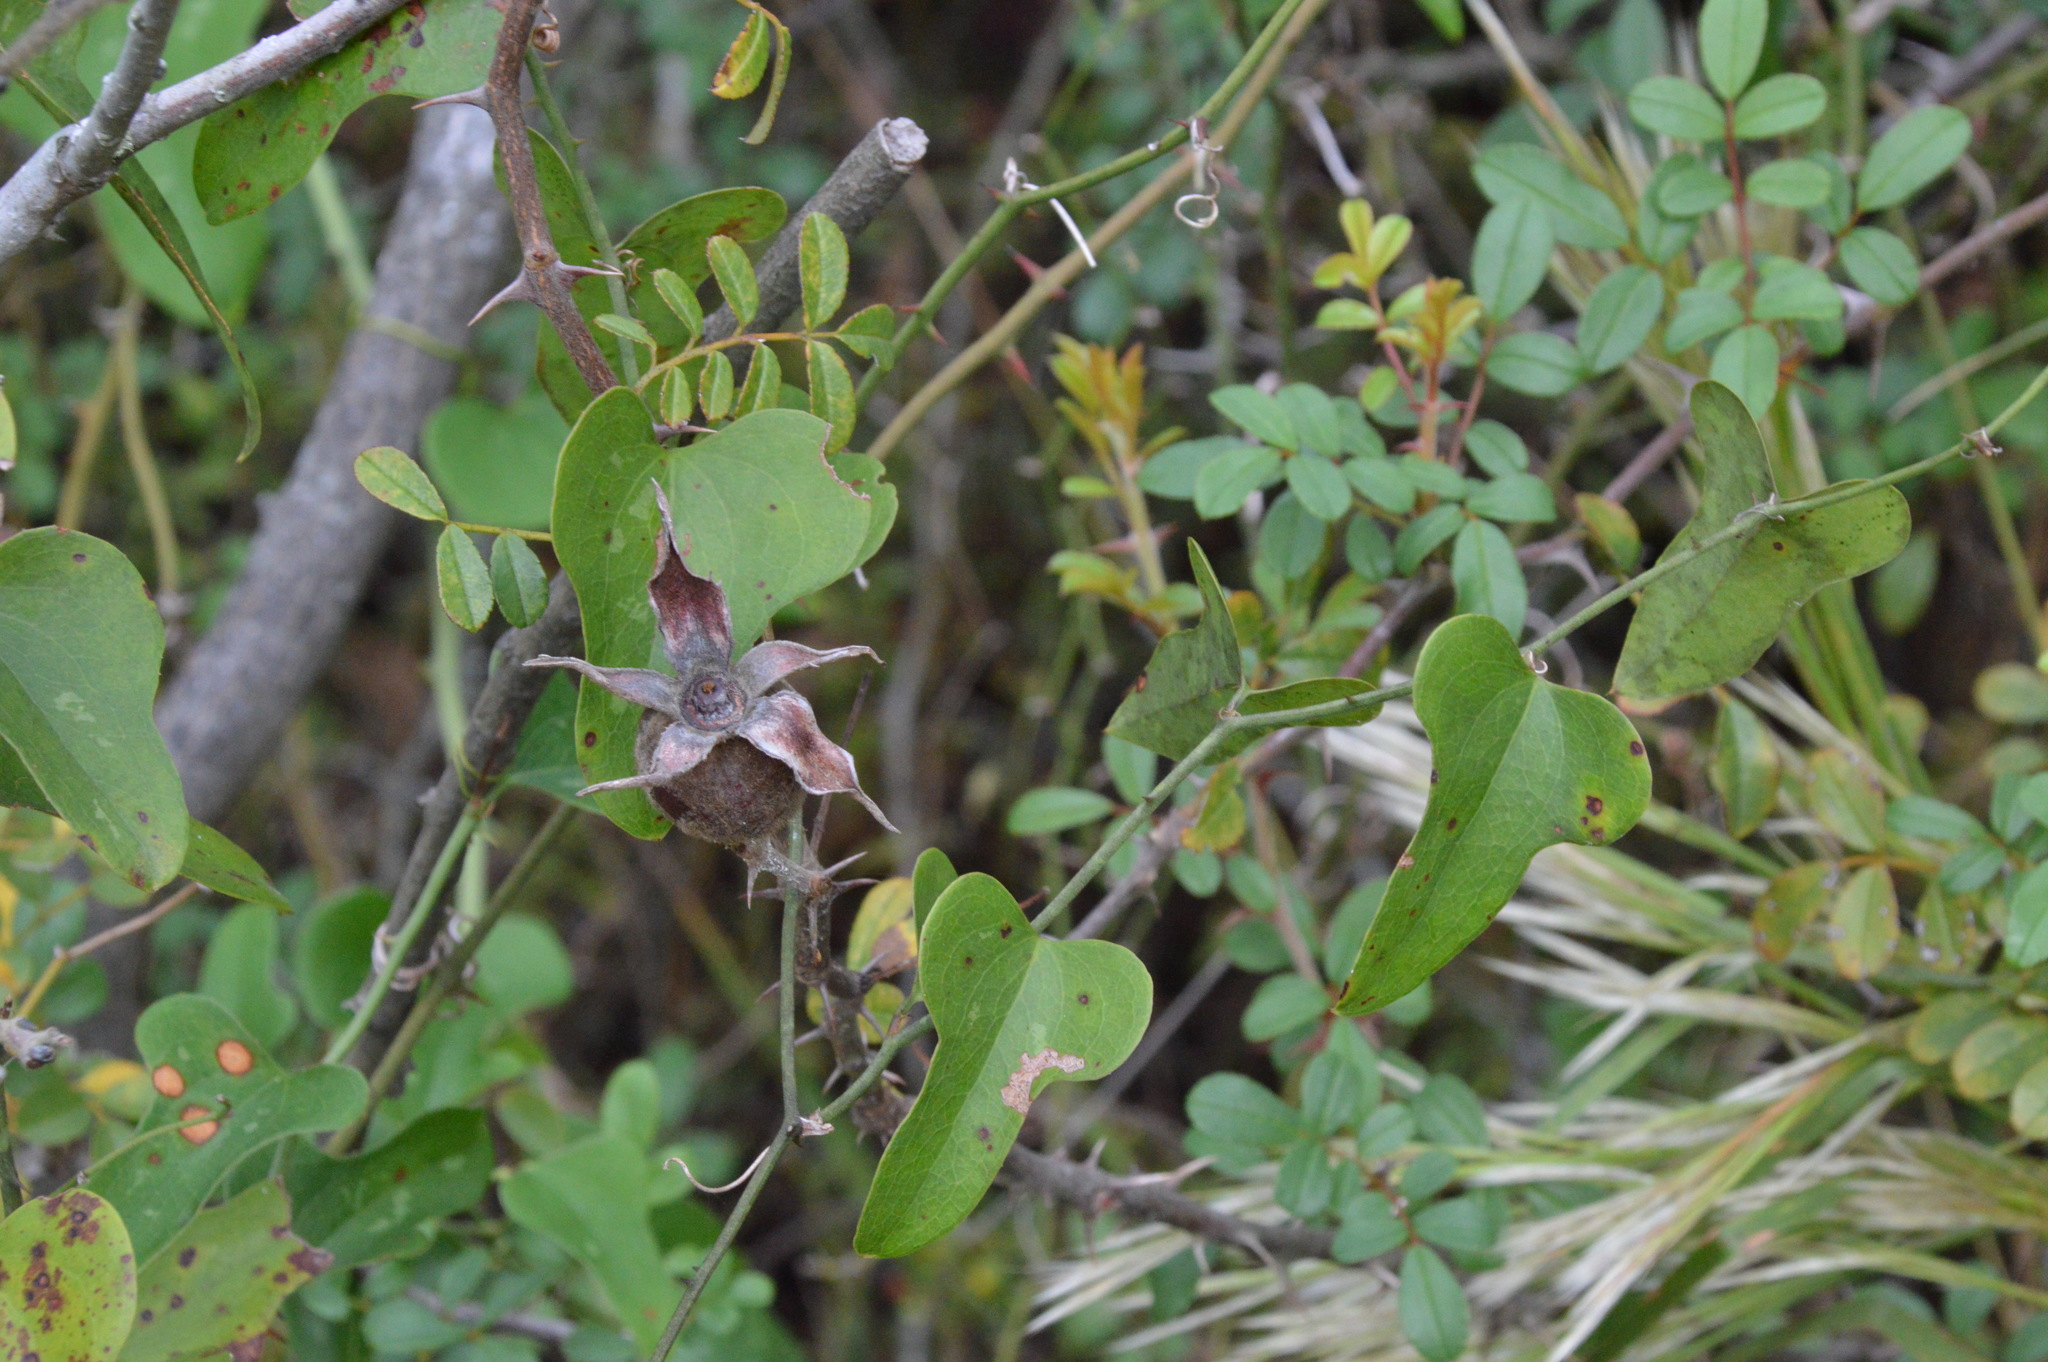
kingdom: Plantae
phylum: Tracheophyta
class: Magnoliopsida
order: Rosales
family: Rosaceae
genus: Rosa
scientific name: Rosa bracteata
